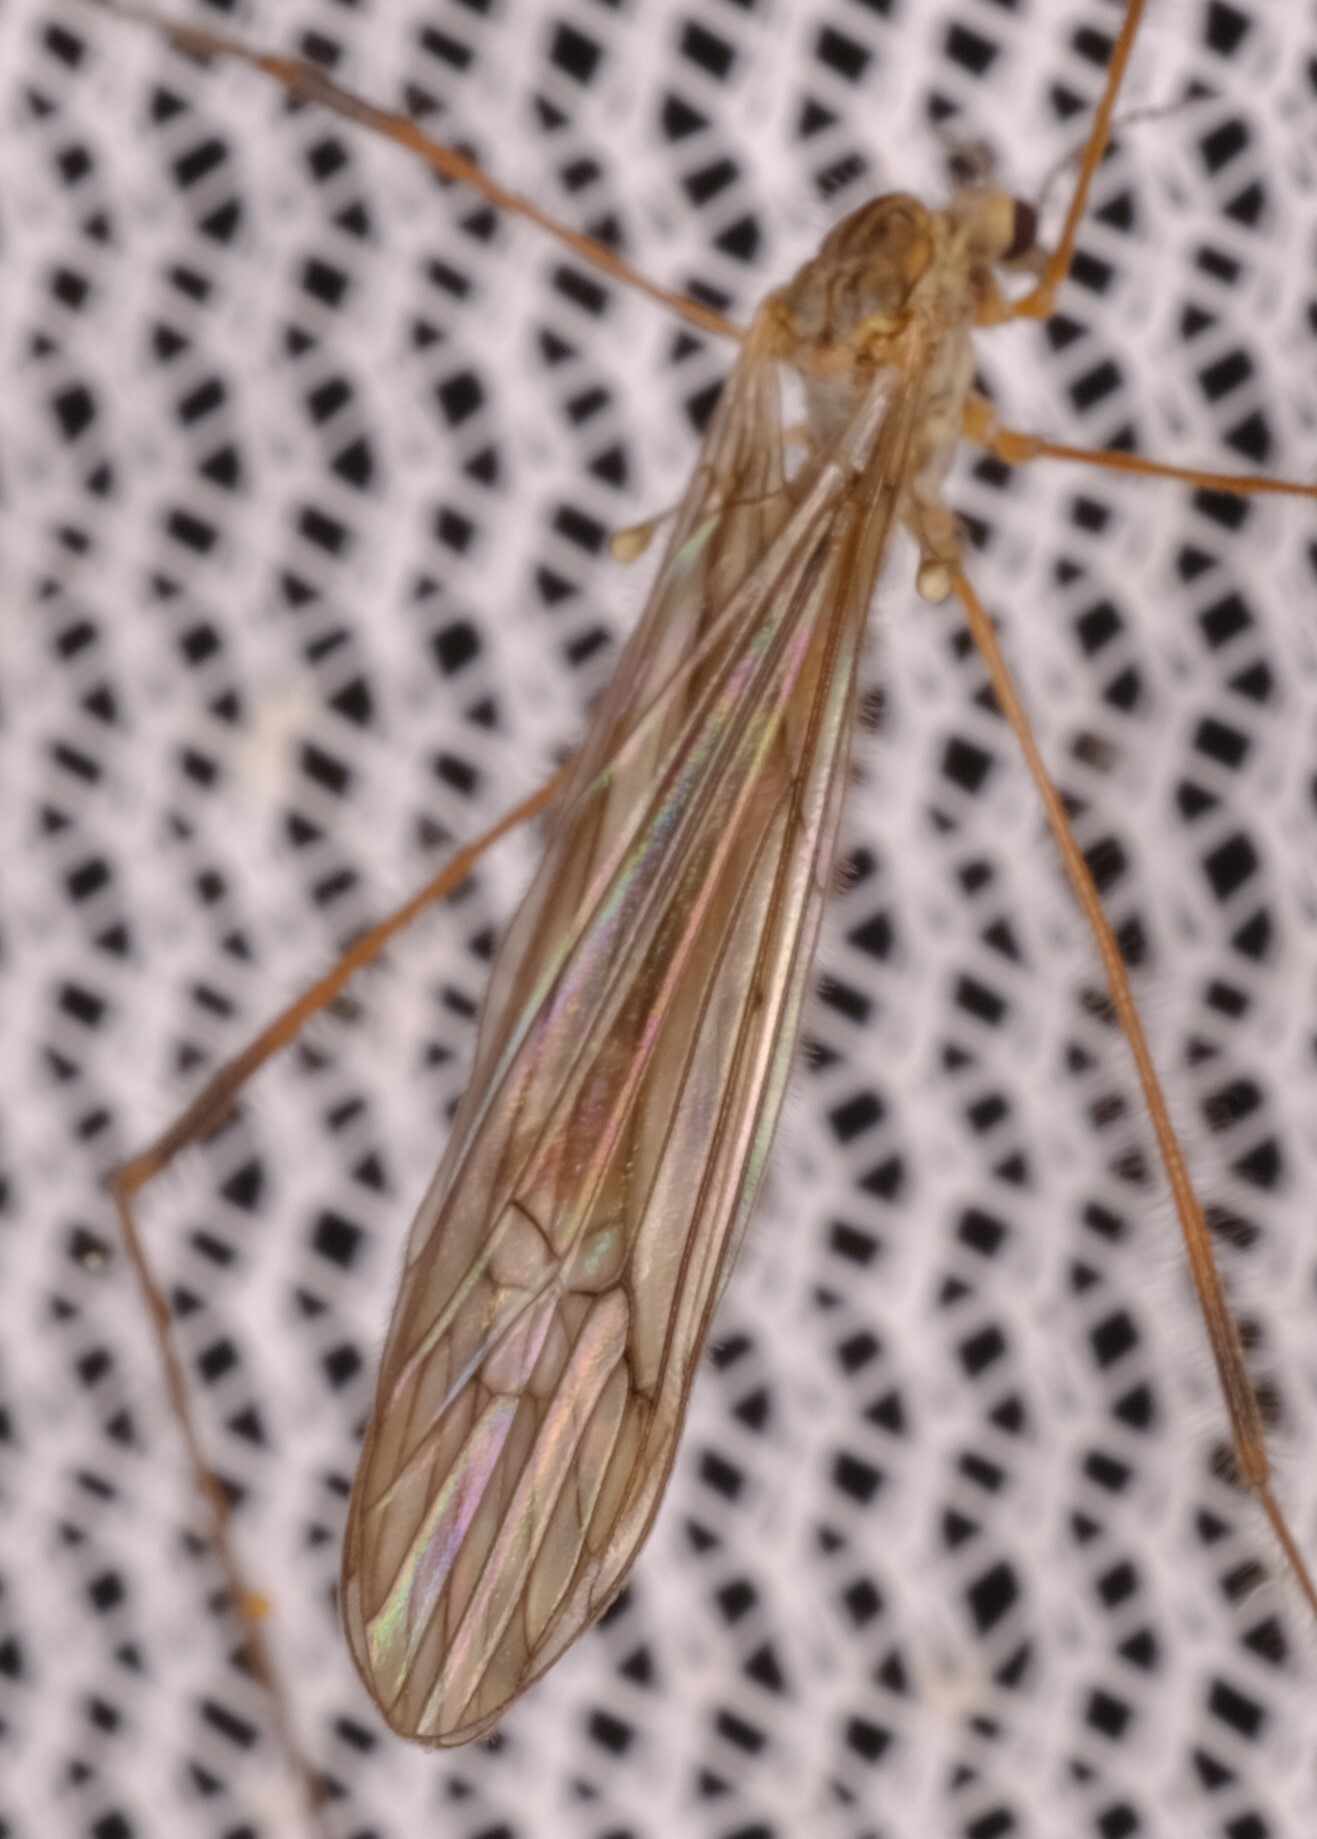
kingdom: Animalia
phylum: Arthropoda
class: Insecta
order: Diptera
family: Limoniidae
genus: Symplecta
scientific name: Symplecta pilipes
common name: Crane fly
